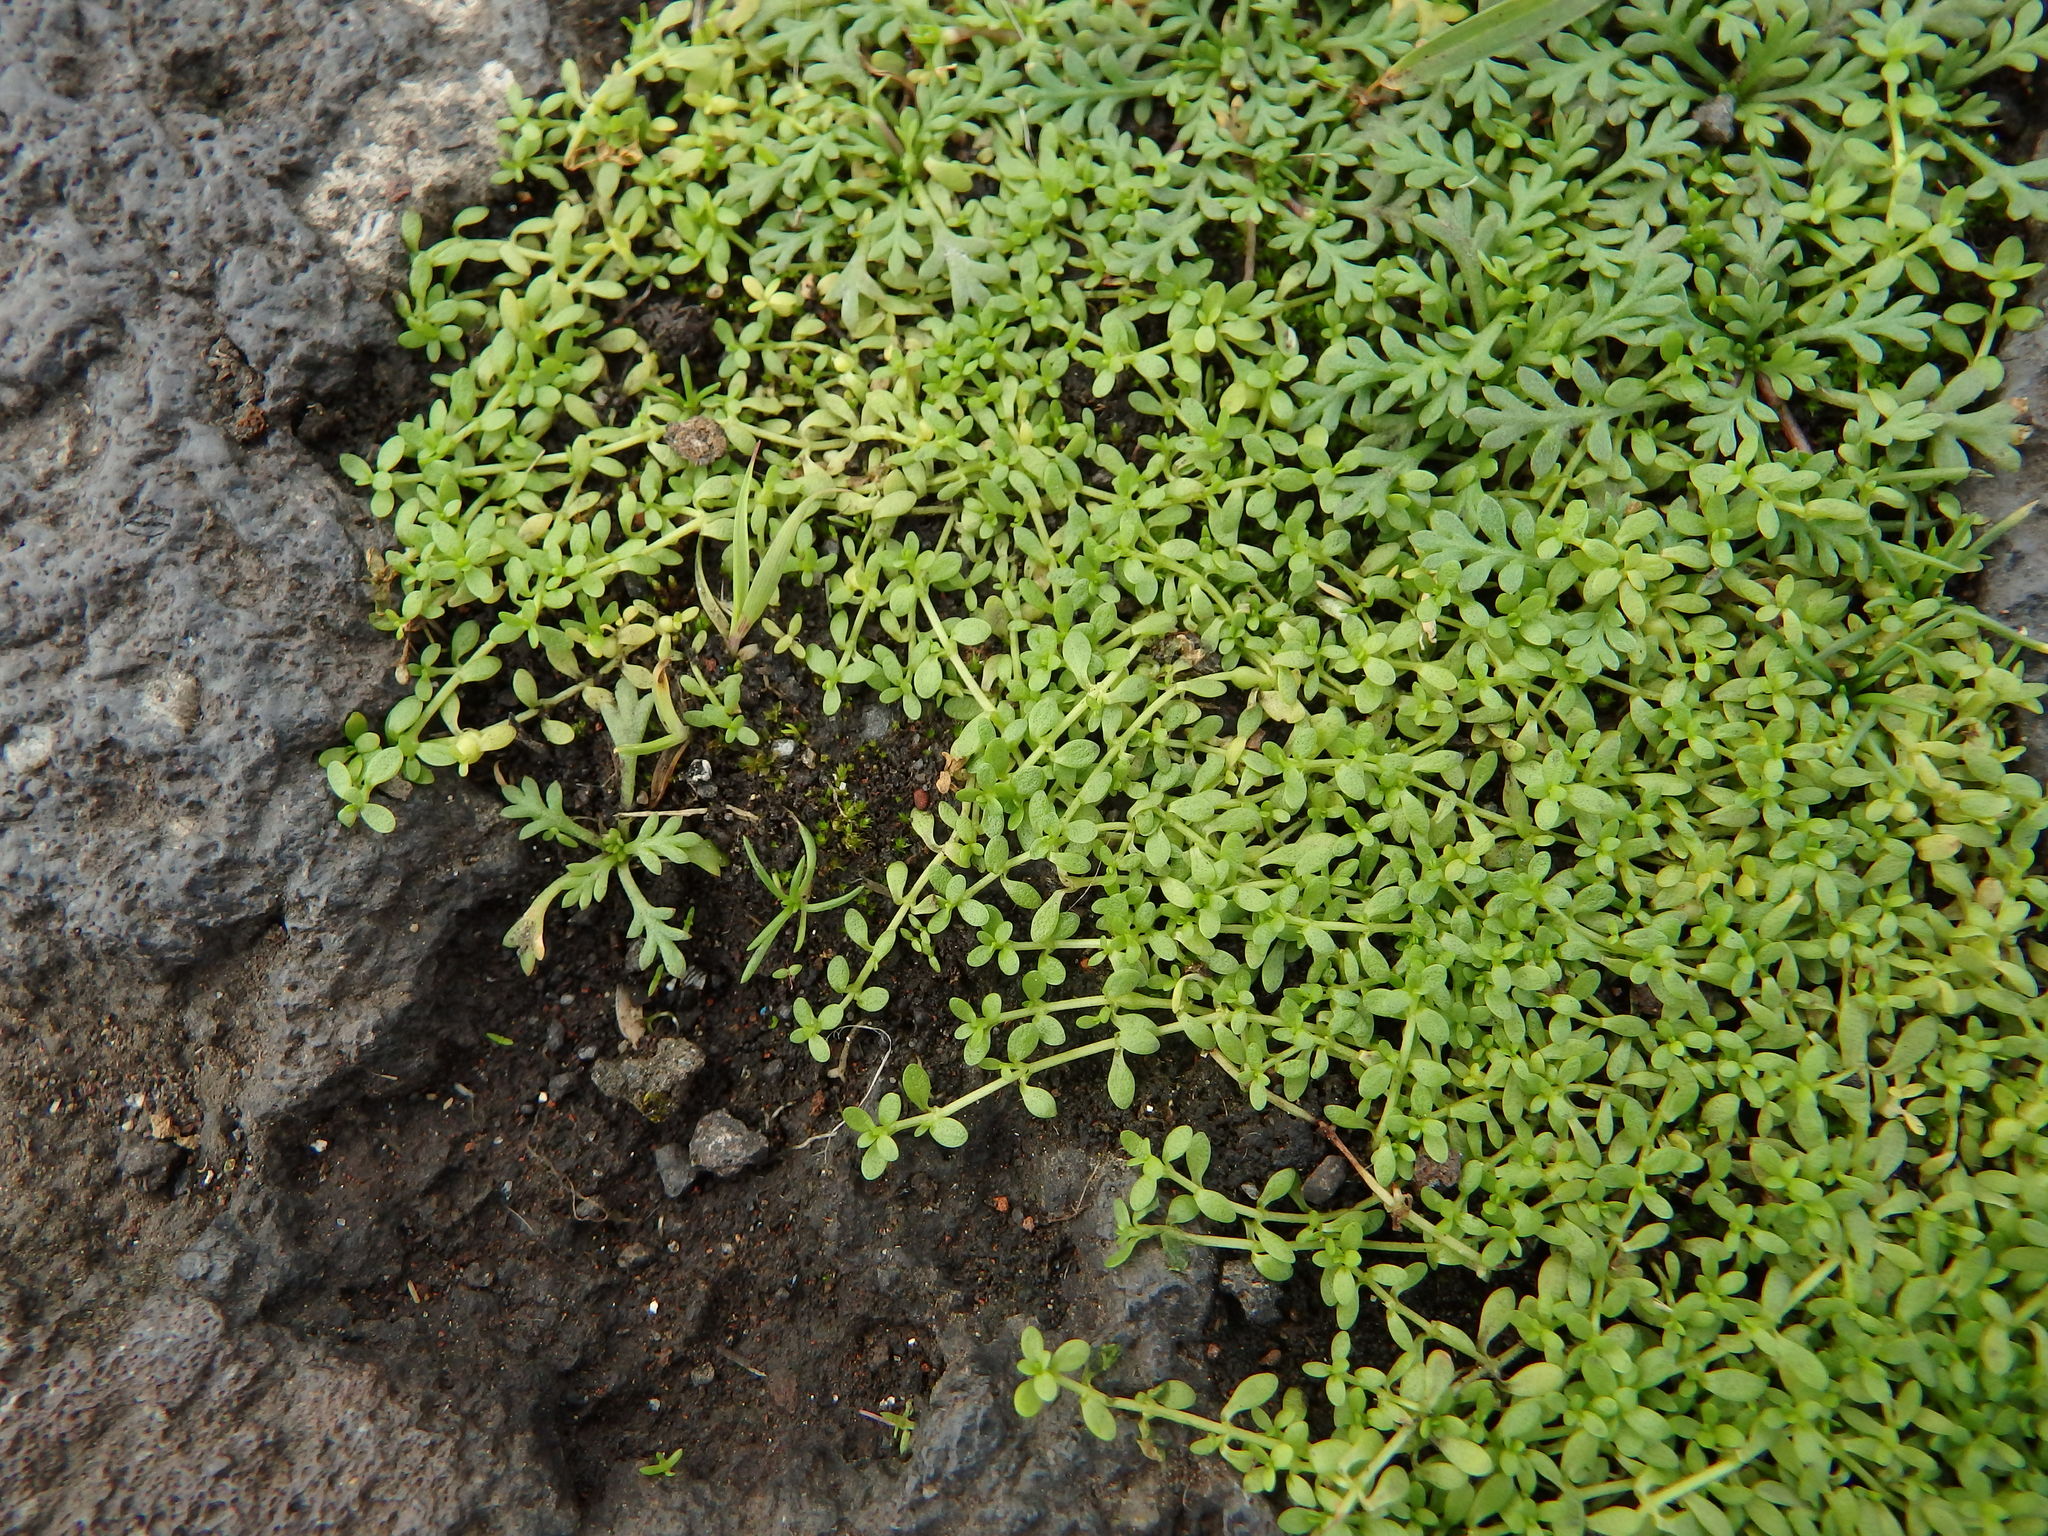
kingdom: Plantae
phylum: Tracheophyta
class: Magnoliopsida
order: Lamiales
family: Plantaginaceae
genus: Callitriche
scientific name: Callitriche deflexa
